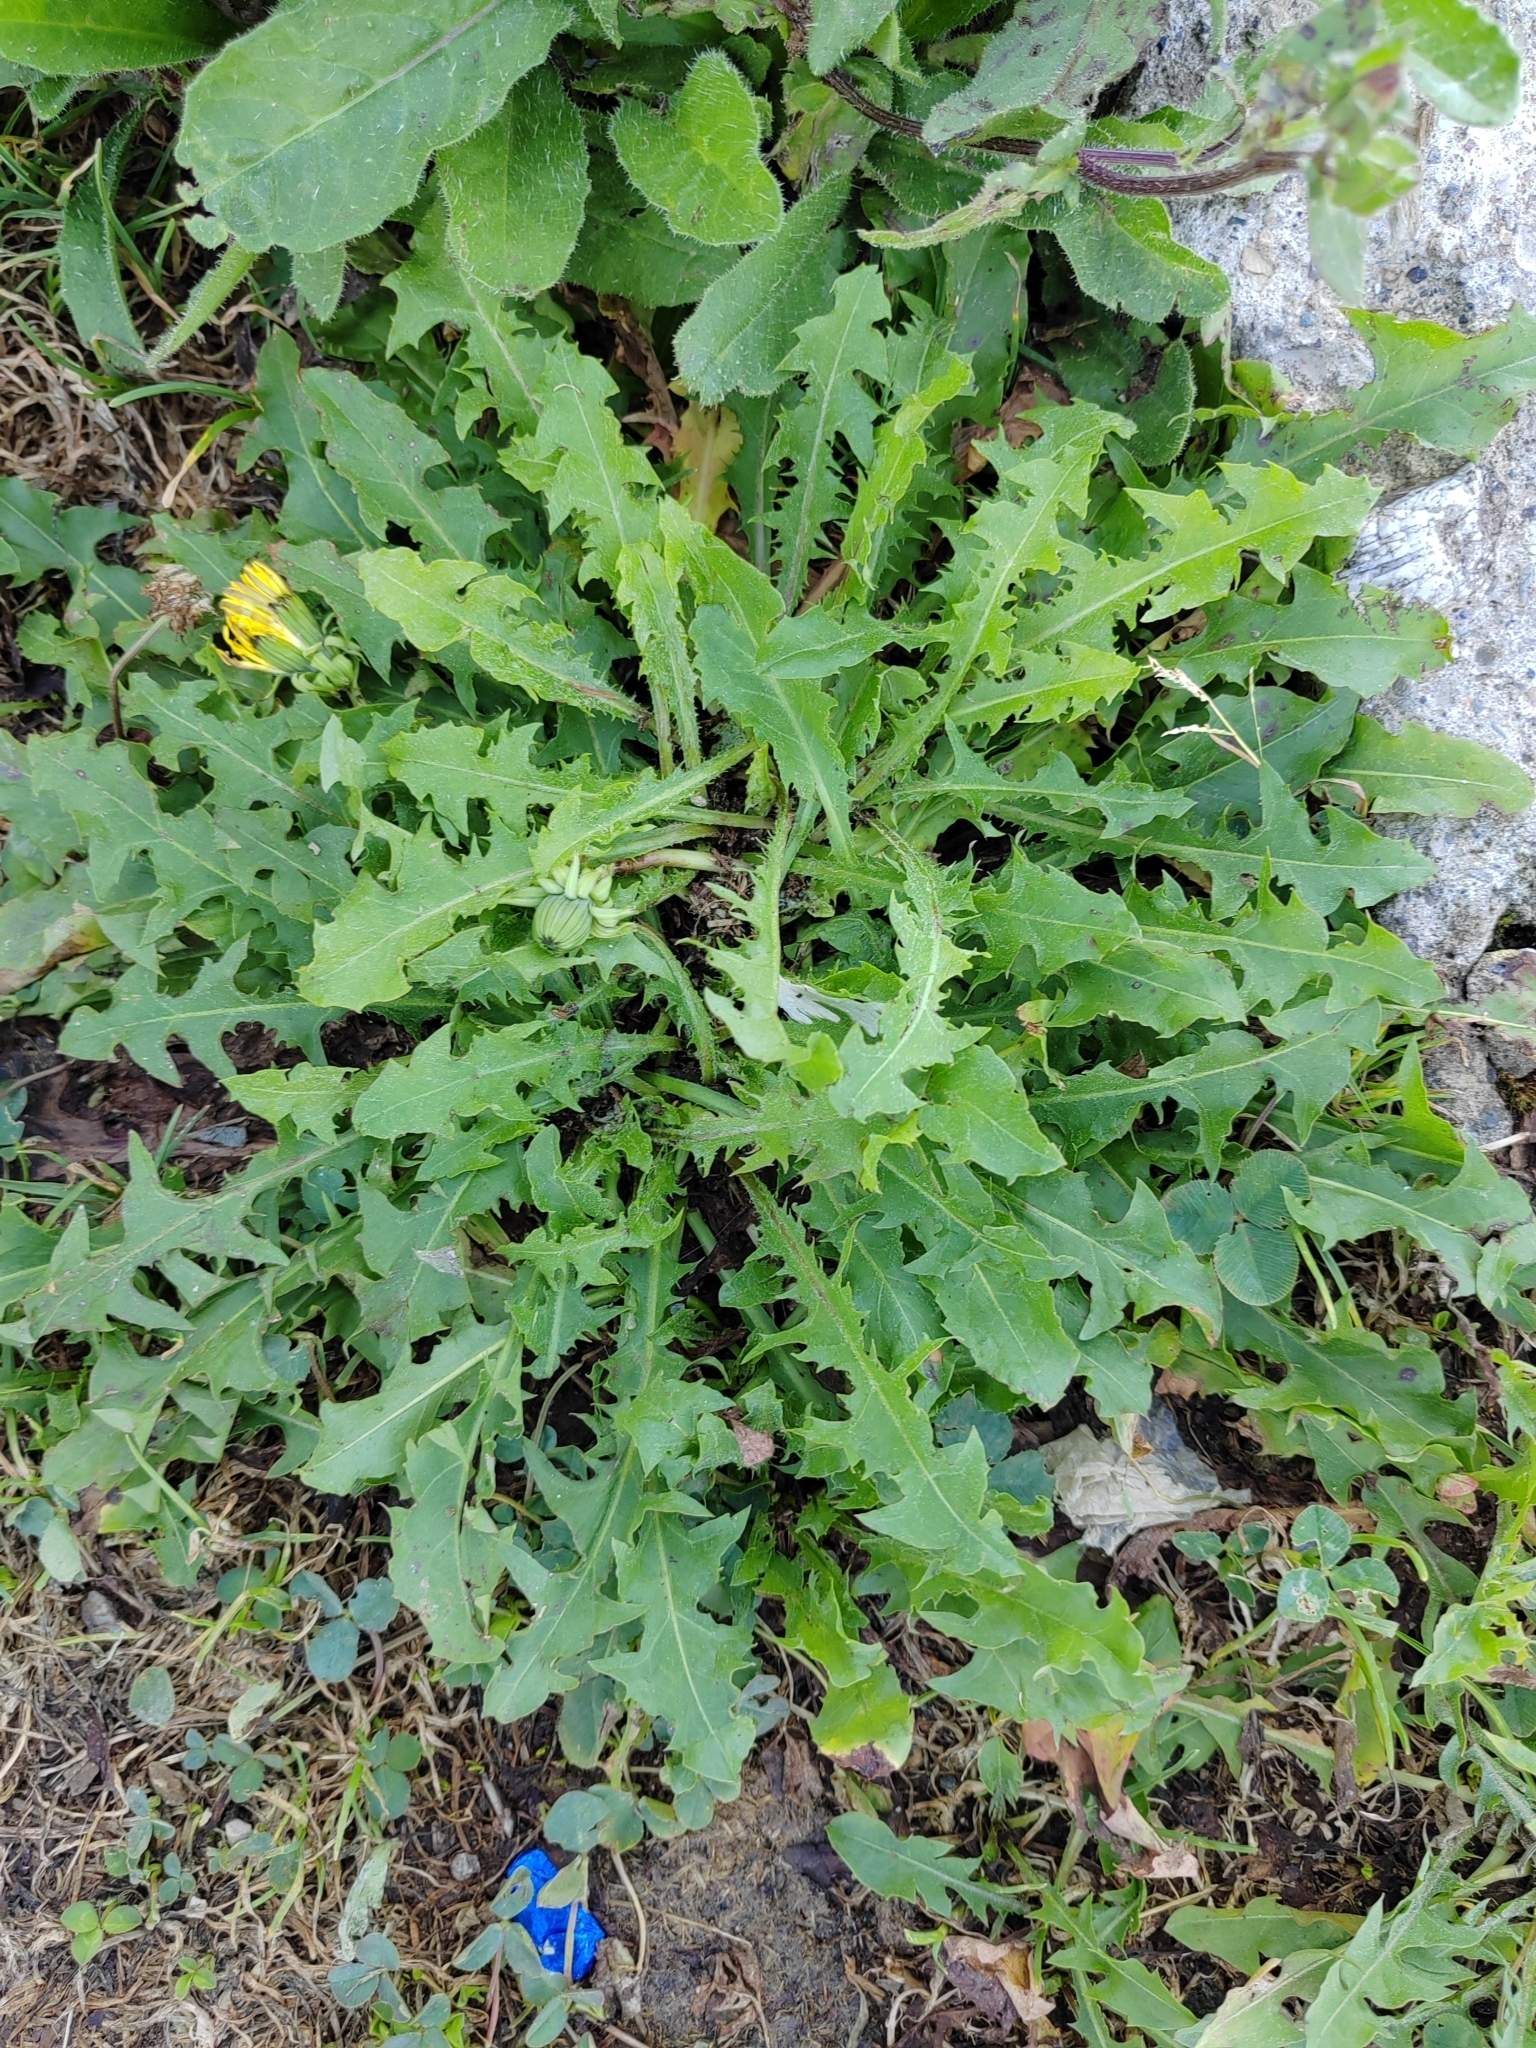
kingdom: Plantae
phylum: Tracheophyta
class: Magnoliopsida
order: Asterales
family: Asteraceae
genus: Taraxacum
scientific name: Taraxacum officinale
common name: Common dandelion
